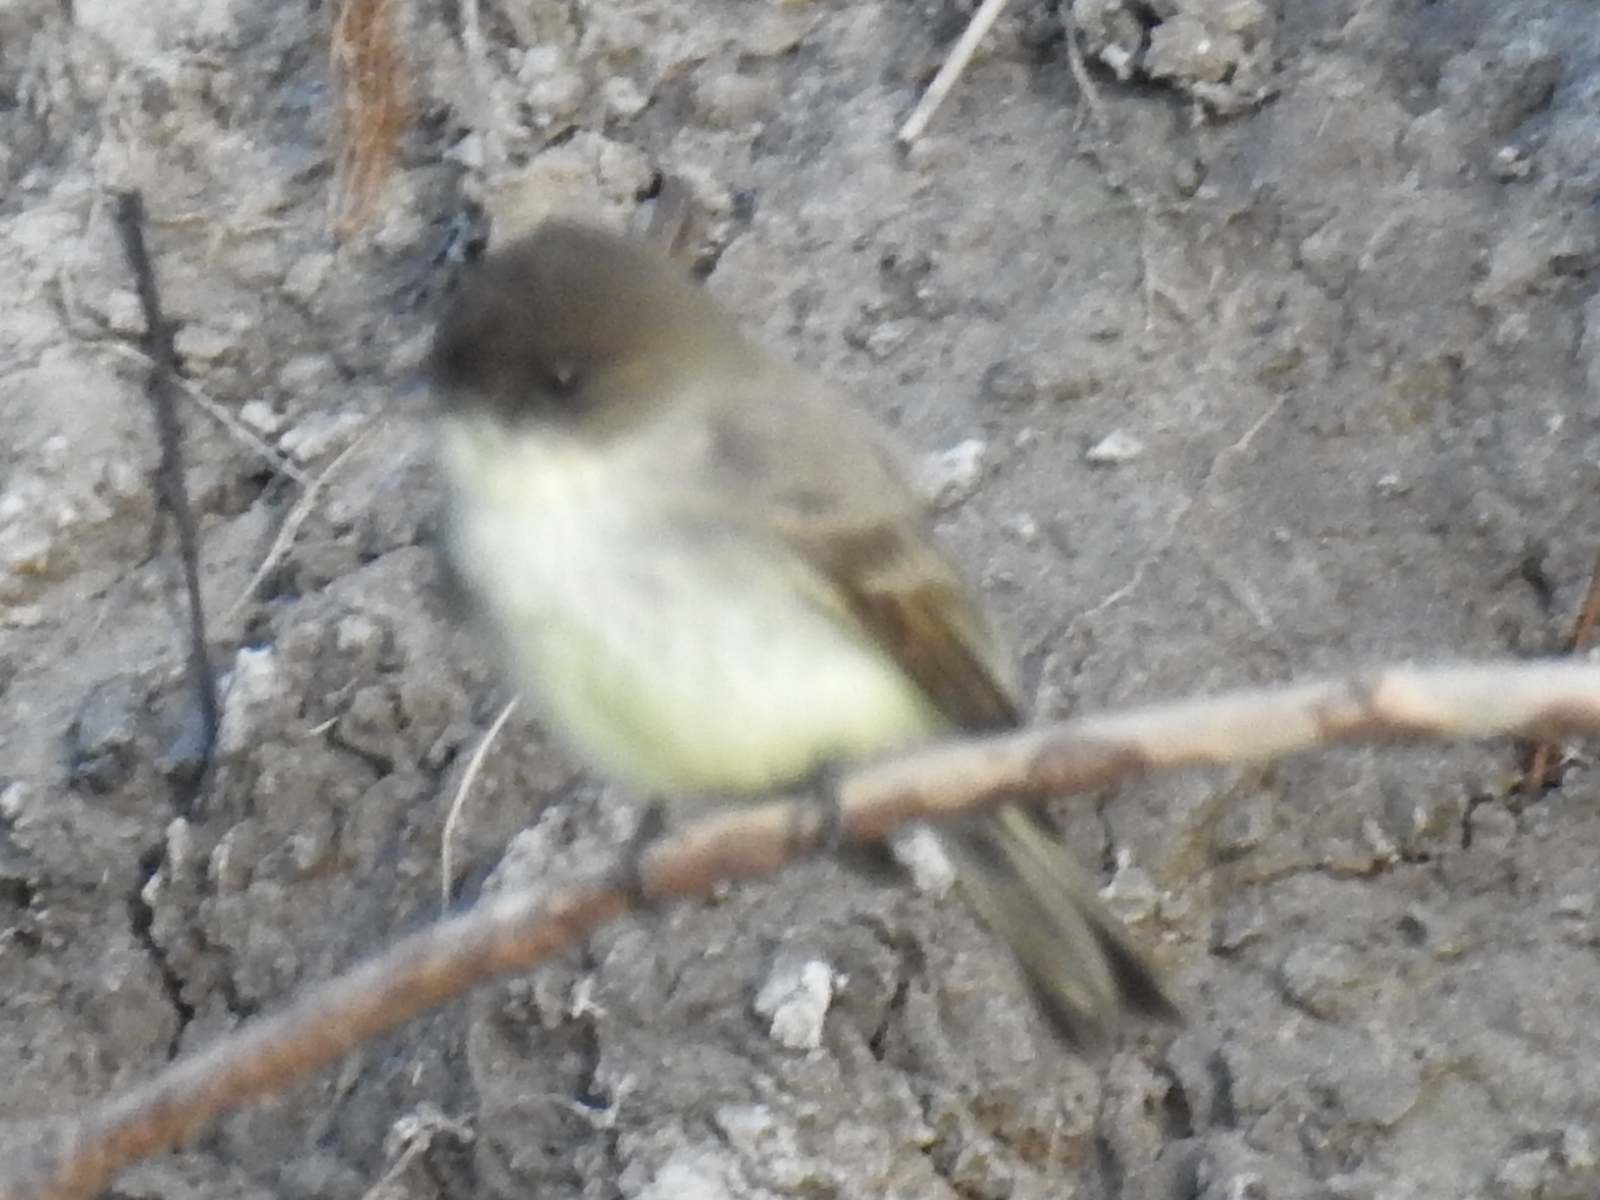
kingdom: Animalia
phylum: Chordata
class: Aves
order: Passeriformes
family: Tyrannidae
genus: Sayornis
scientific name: Sayornis phoebe
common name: Eastern phoebe
